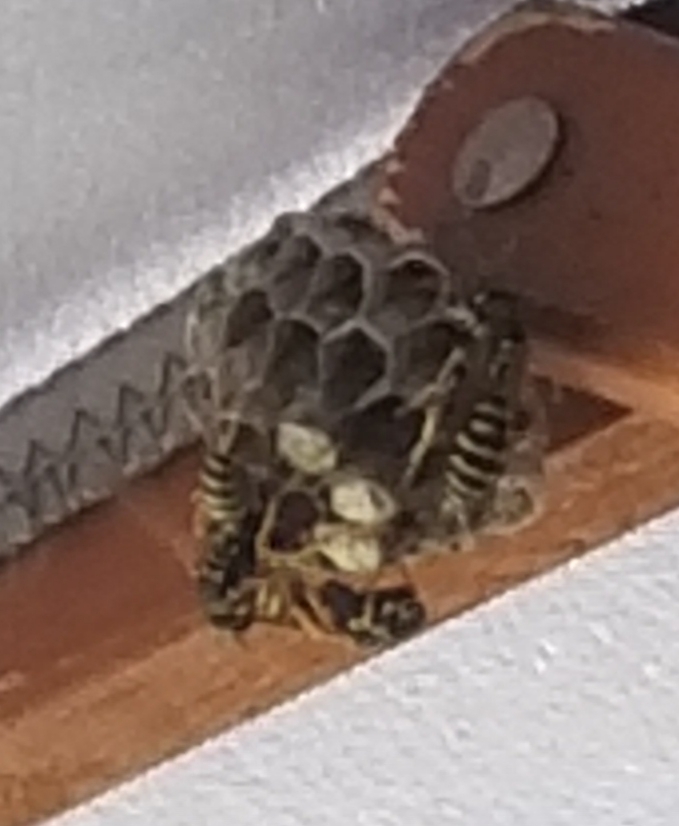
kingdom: Animalia
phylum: Arthropoda
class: Insecta
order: Hymenoptera
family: Eumenidae
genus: Polistes
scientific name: Polistes dominula
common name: Paper wasp
